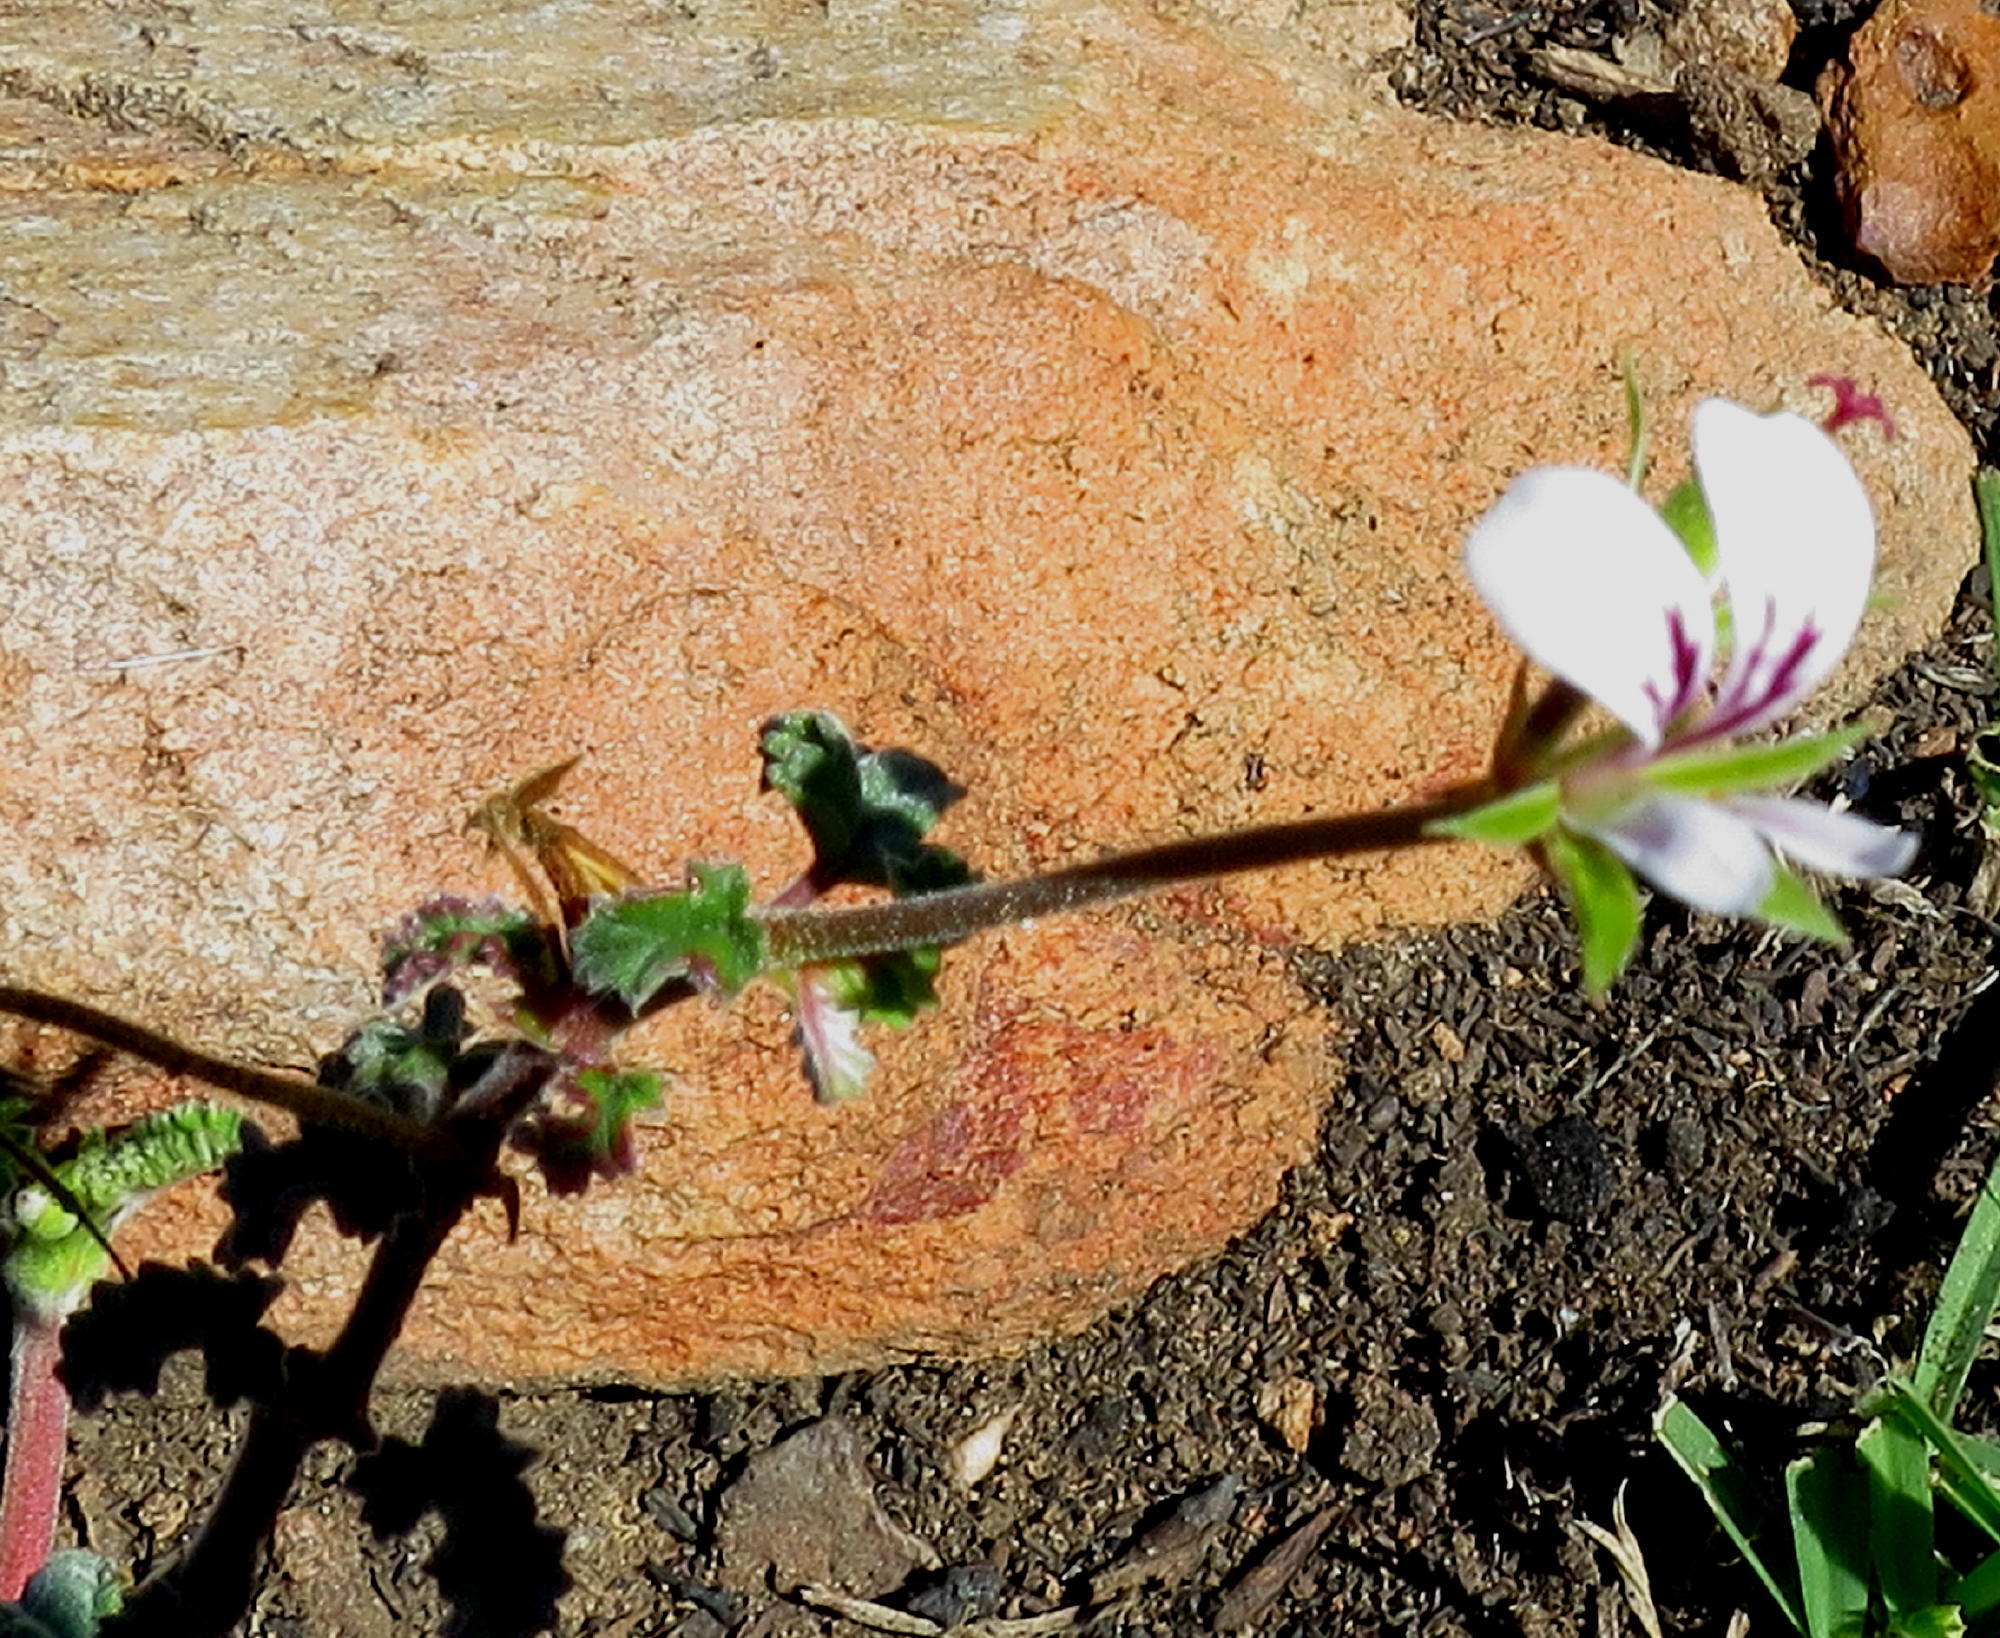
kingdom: Plantae
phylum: Tracheophyta
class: Magnoliopsida
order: Geraniales
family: Geraniaceae
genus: Pelargonium
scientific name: Pelargonium candicans
